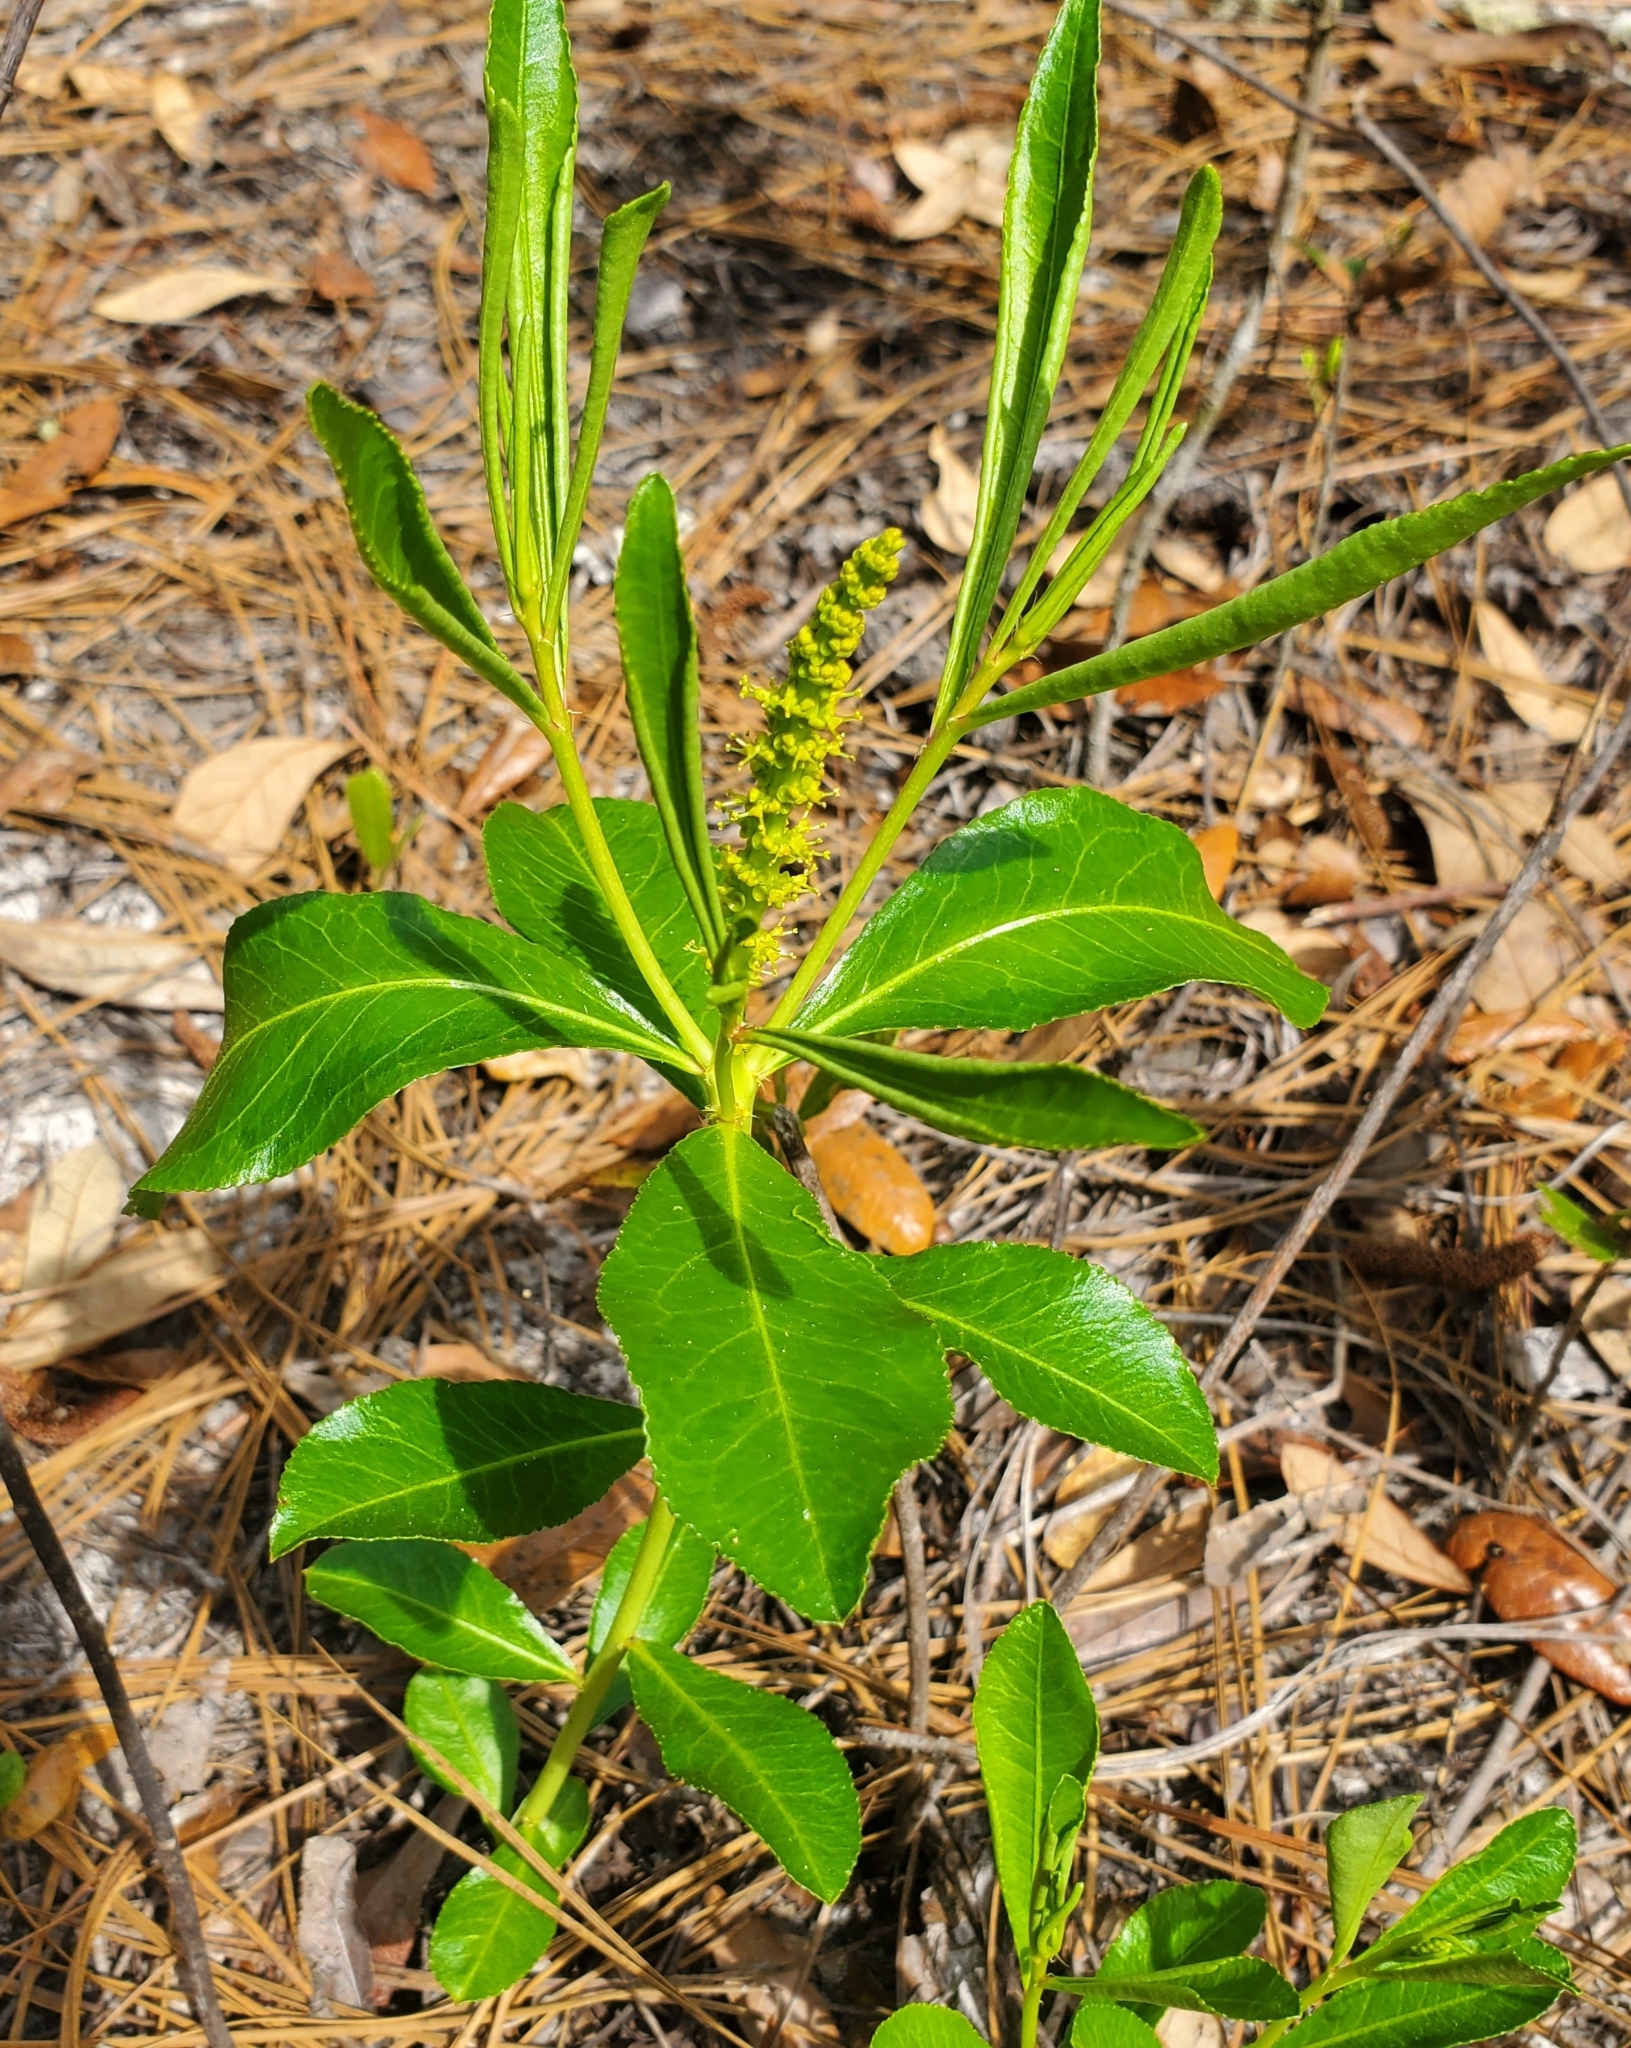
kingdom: Plantae
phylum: Tracheophyta
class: Magnoliopsida
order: Malpighiales
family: Euphorbiaceae
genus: Stillingia
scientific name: Stillingia sylvatica
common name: Queen's-delight
